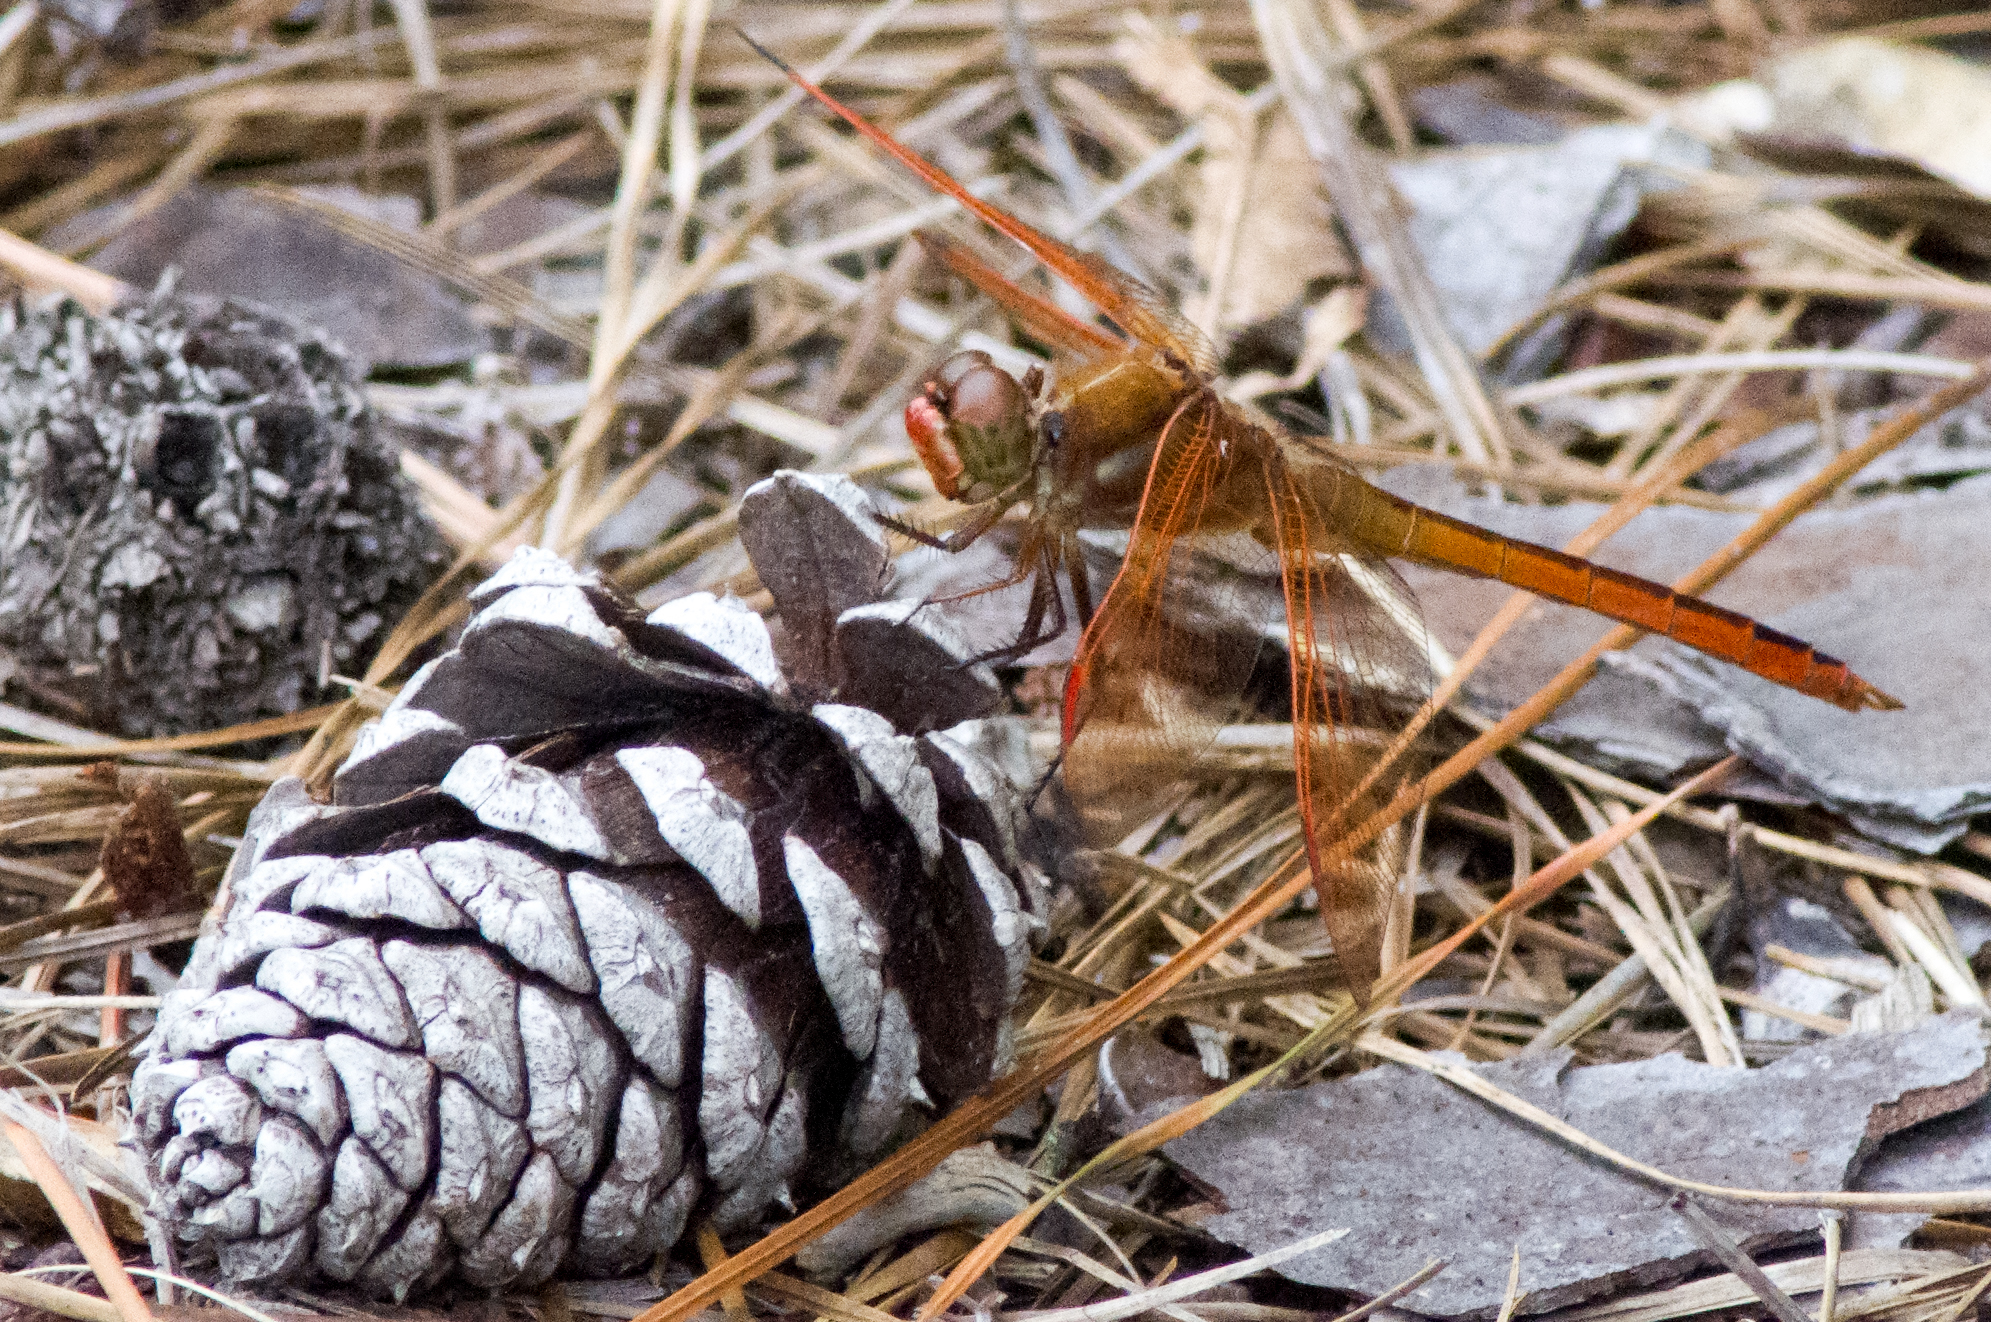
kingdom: Animalia
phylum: Arthropoda
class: Insecta
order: Odonata
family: Libellulidae
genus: Libellula
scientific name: Libellula auripennis
